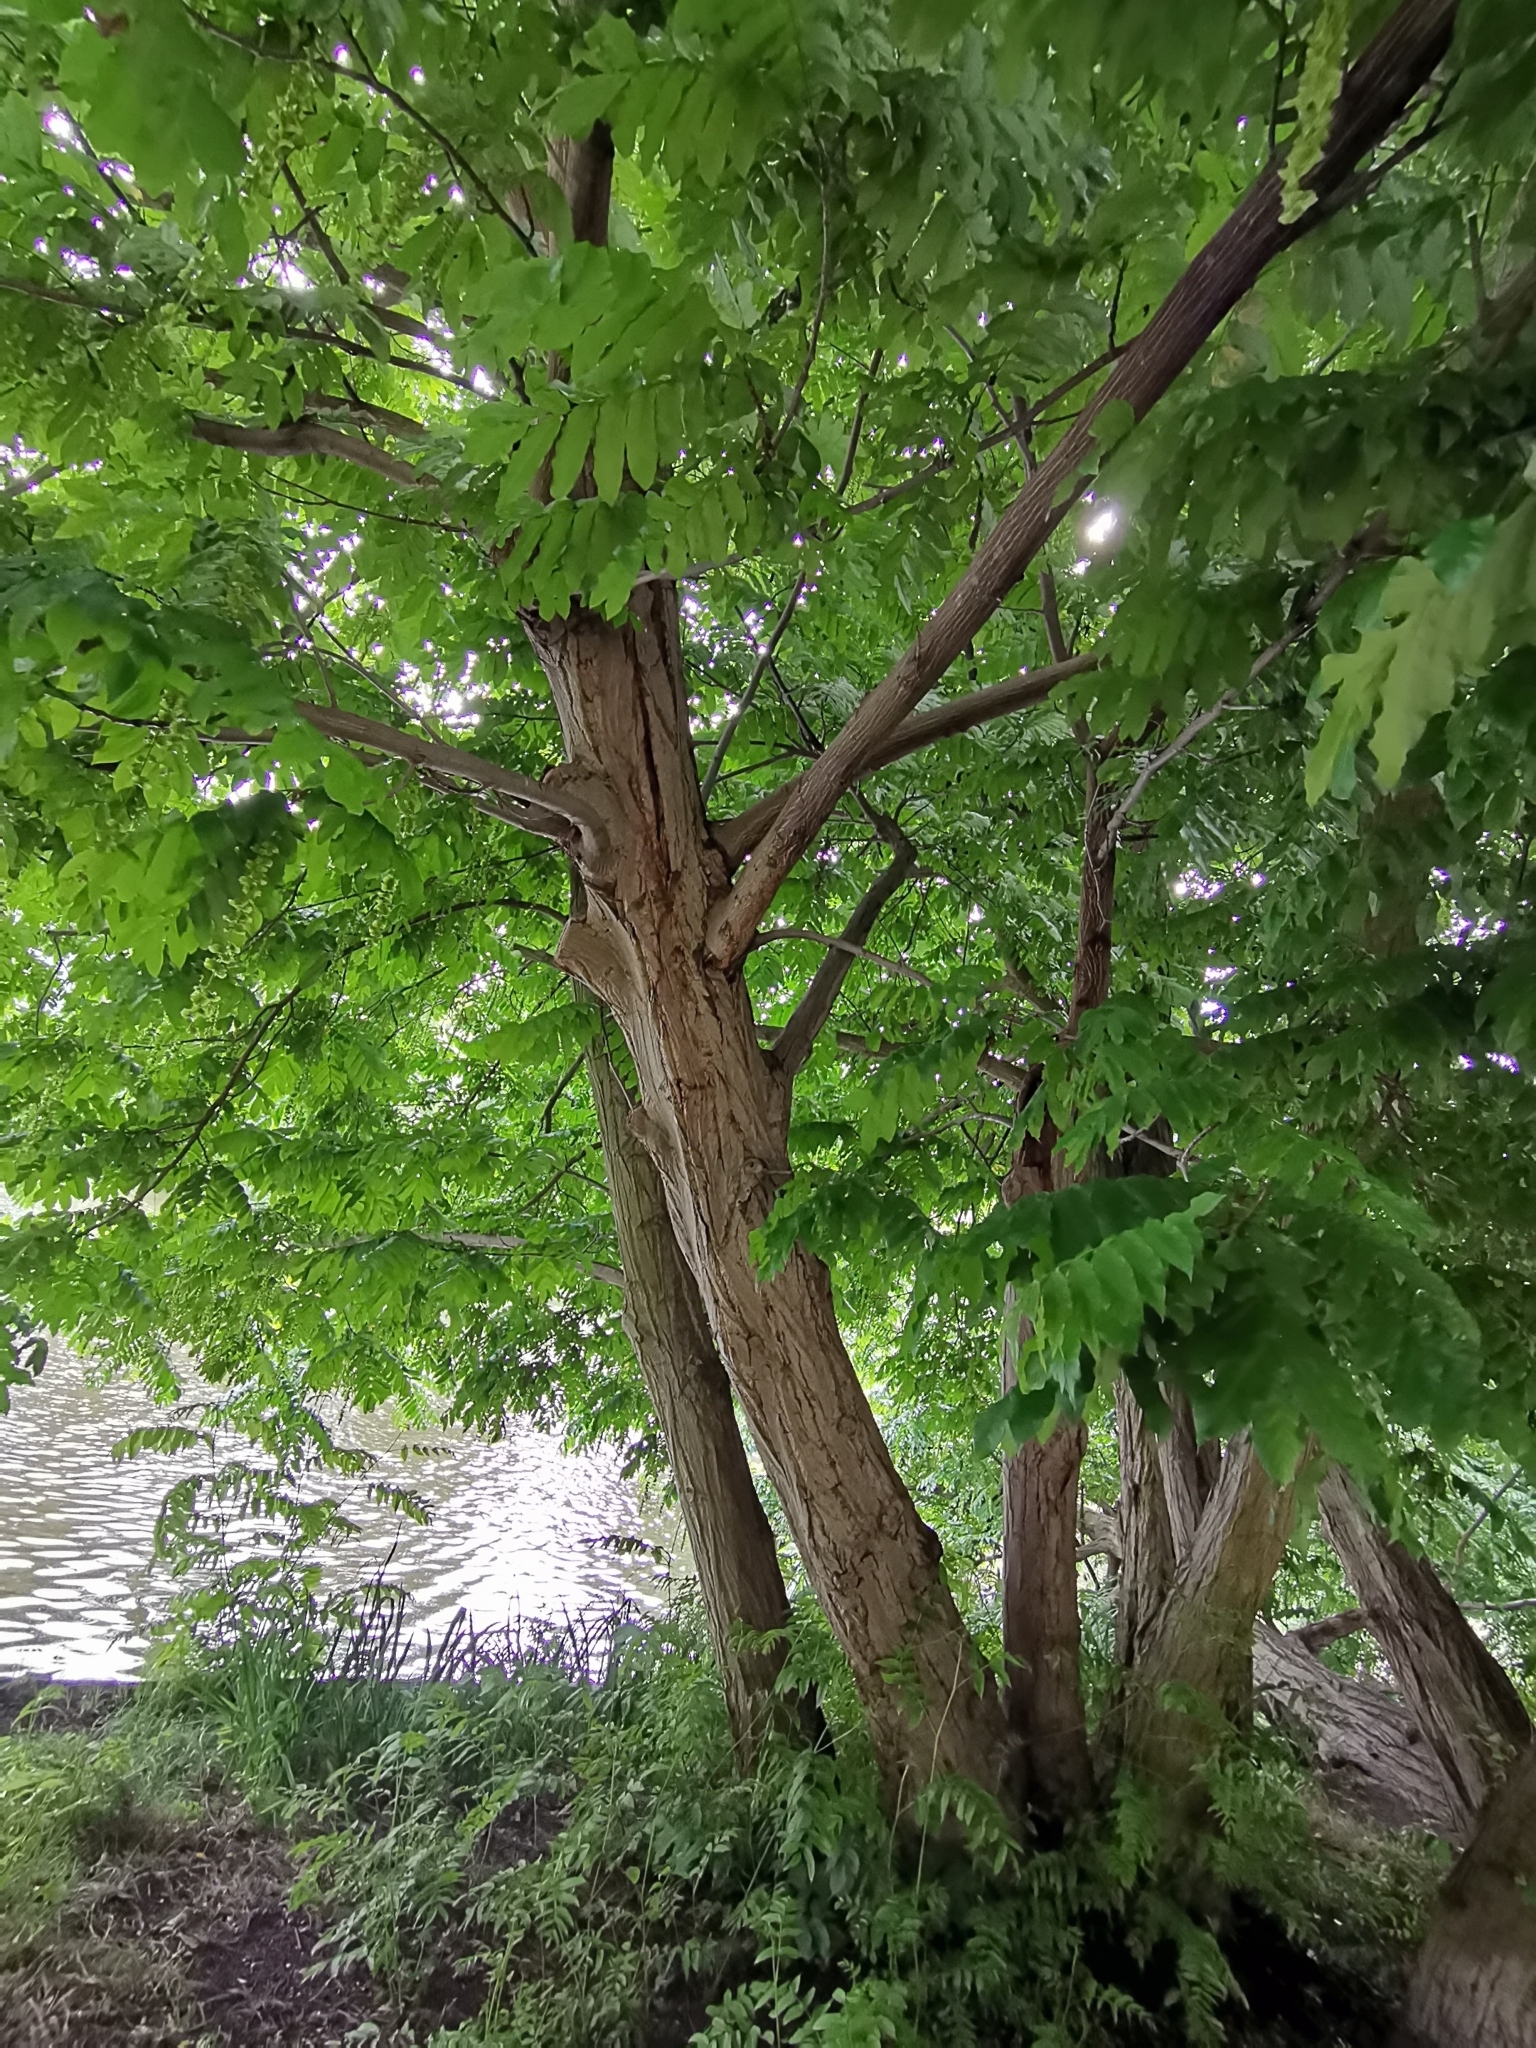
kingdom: Plantae
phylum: Tracheophyta
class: Magnoliopsida
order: Fagales
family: Juglandaceae
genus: Pterocarya
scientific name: Pterocarya fraxinifolia
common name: Caucasian wingnut
